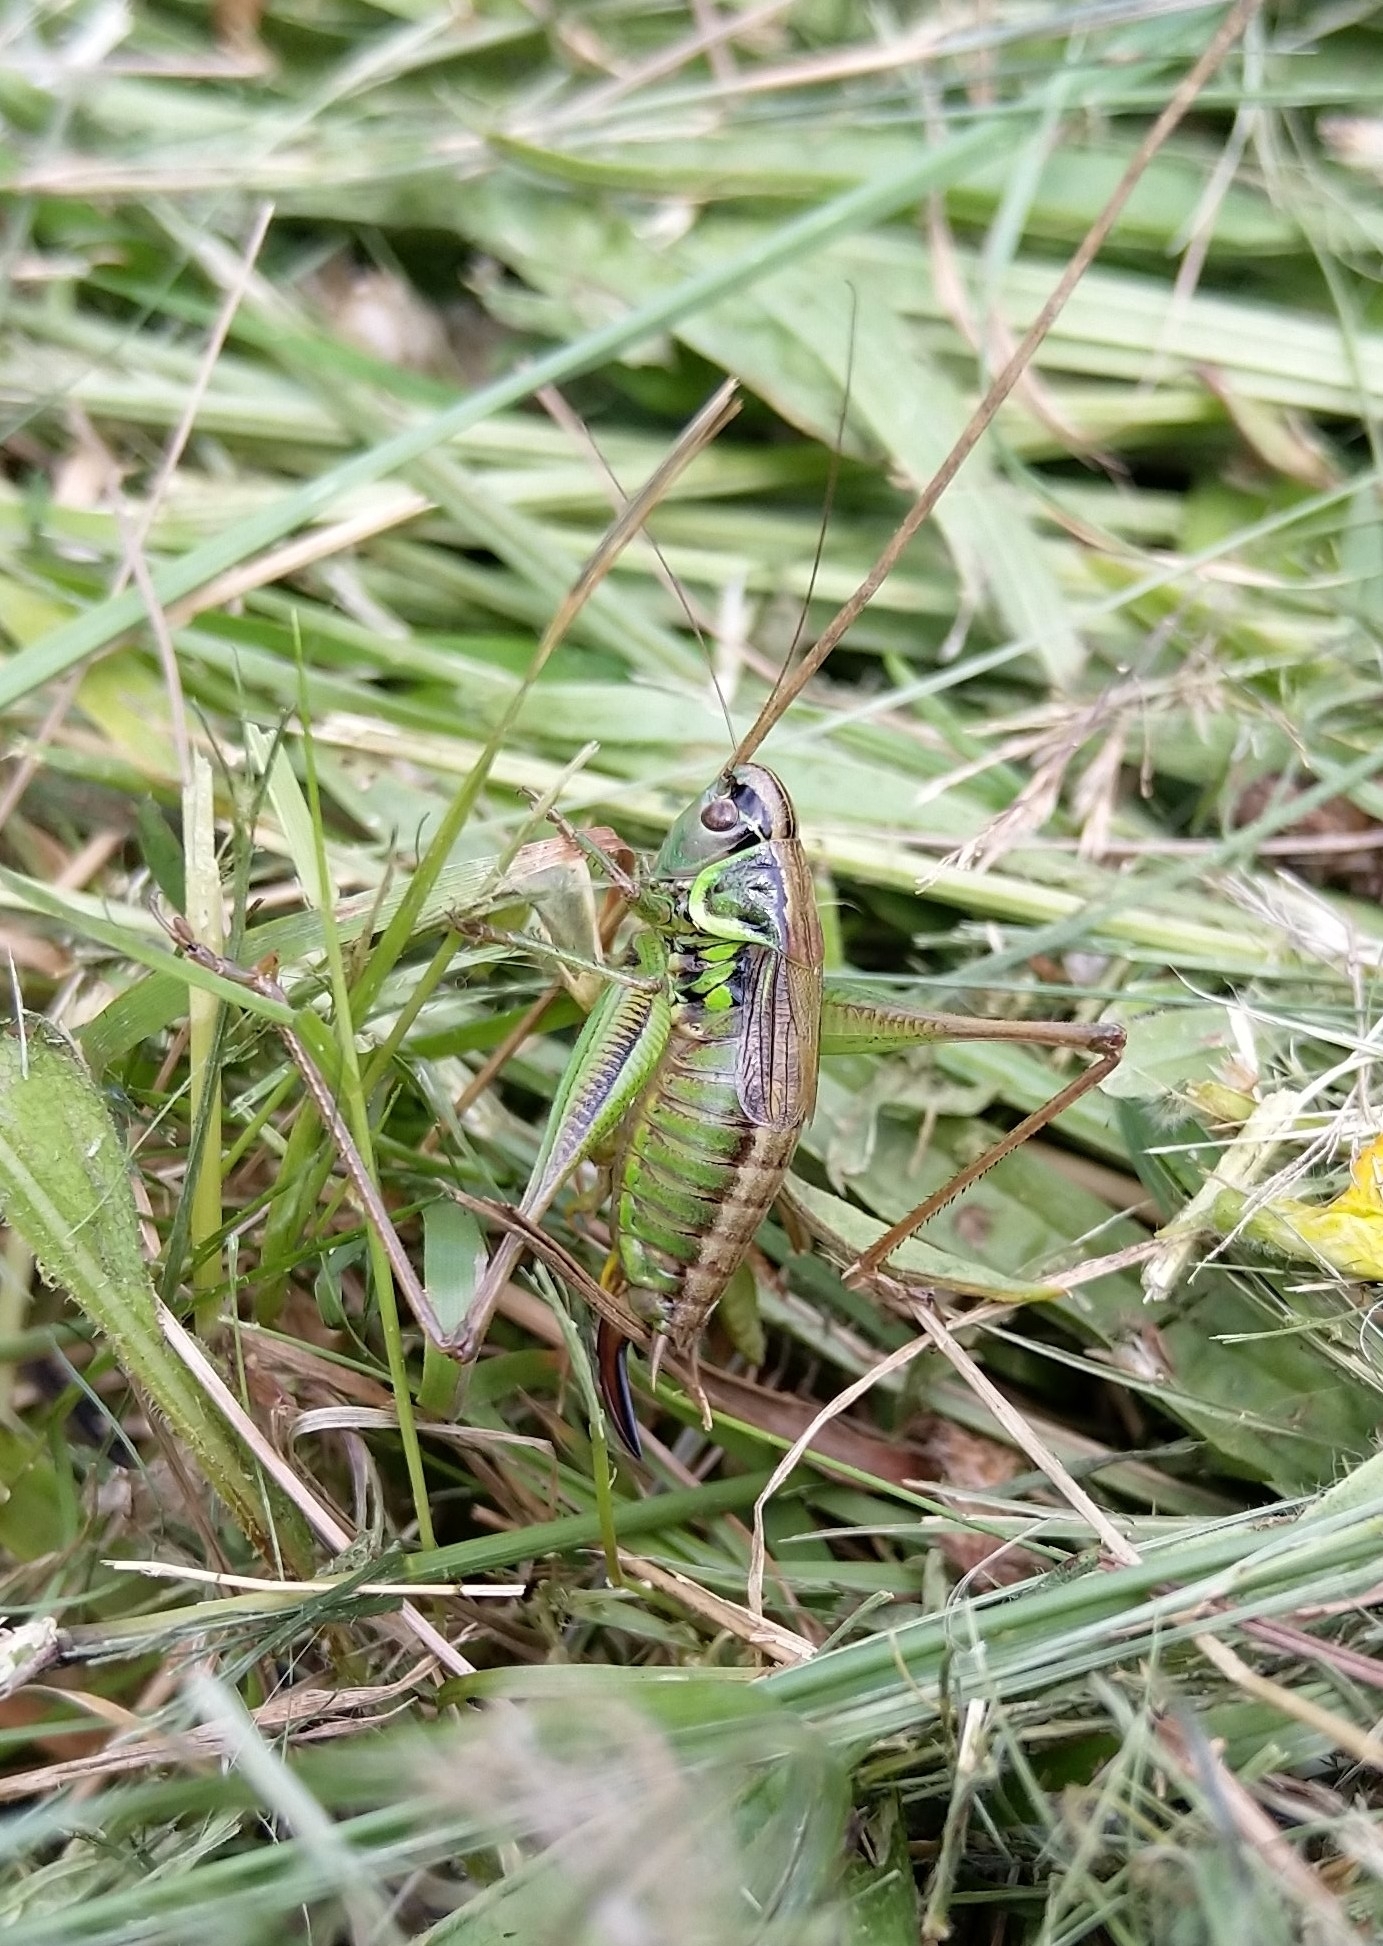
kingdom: Animalia
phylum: Arthropoda
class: Insecta
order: Orthoptera
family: Tettigoniidae
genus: Roeseliana
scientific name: Roeseliana roeselii
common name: Roesel's bush cricket
